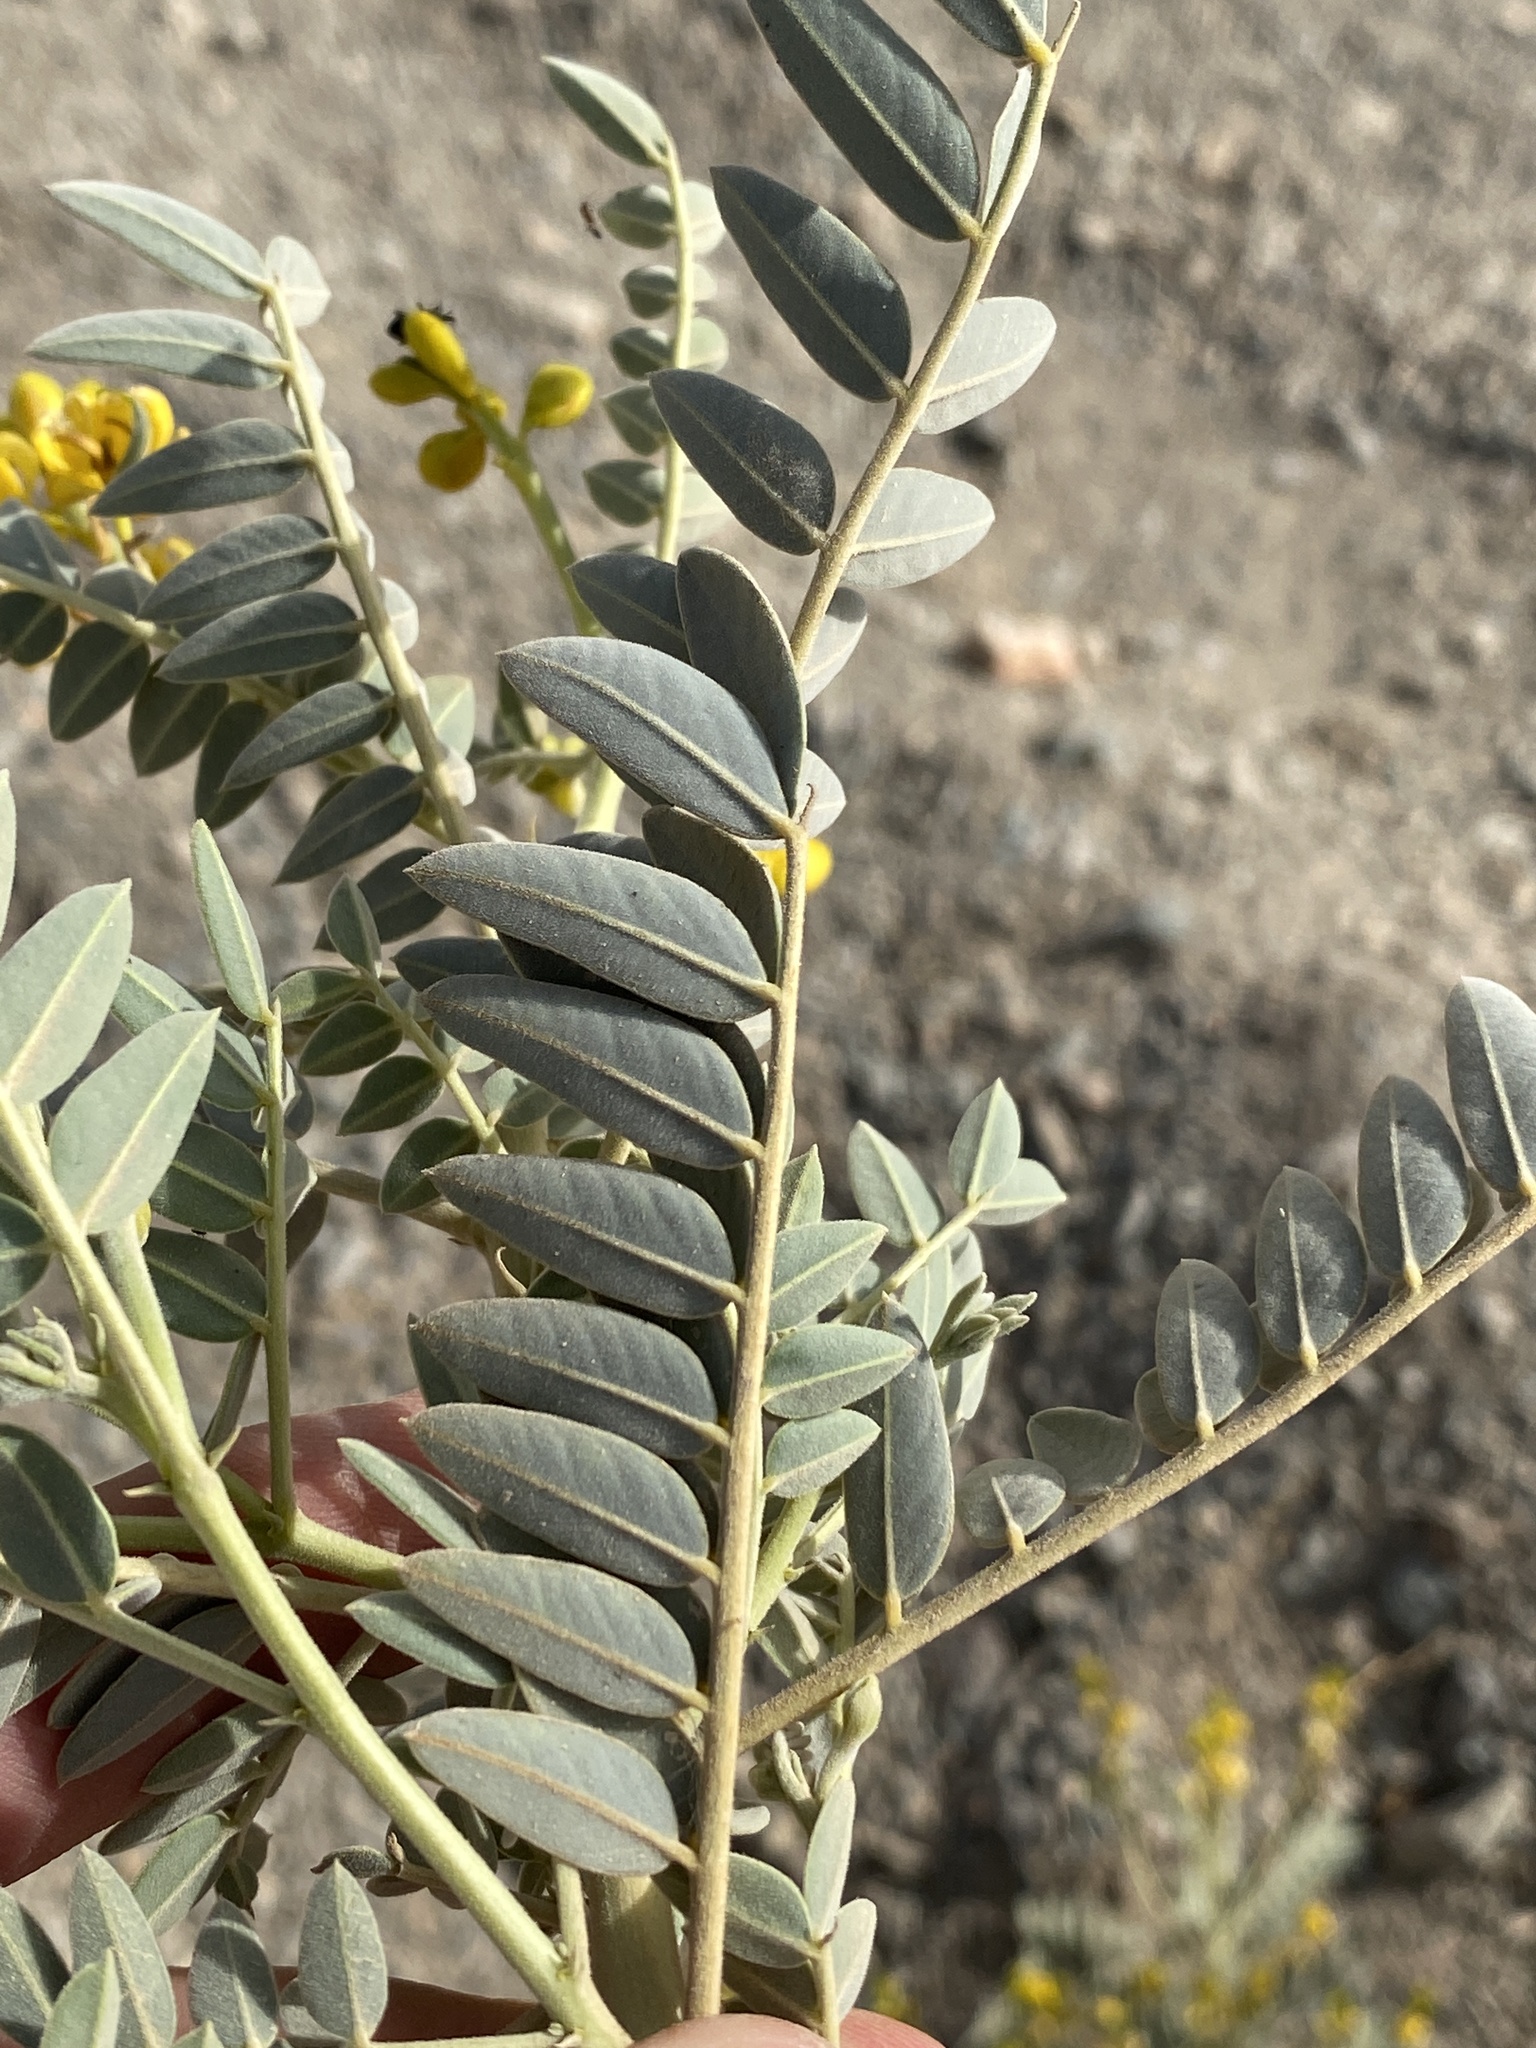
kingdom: Plantae
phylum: Tracheophyta
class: Magnoliopsida
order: Fabales
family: Fabaceae
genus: Senna
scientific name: Senna alexandrina
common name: True senna
